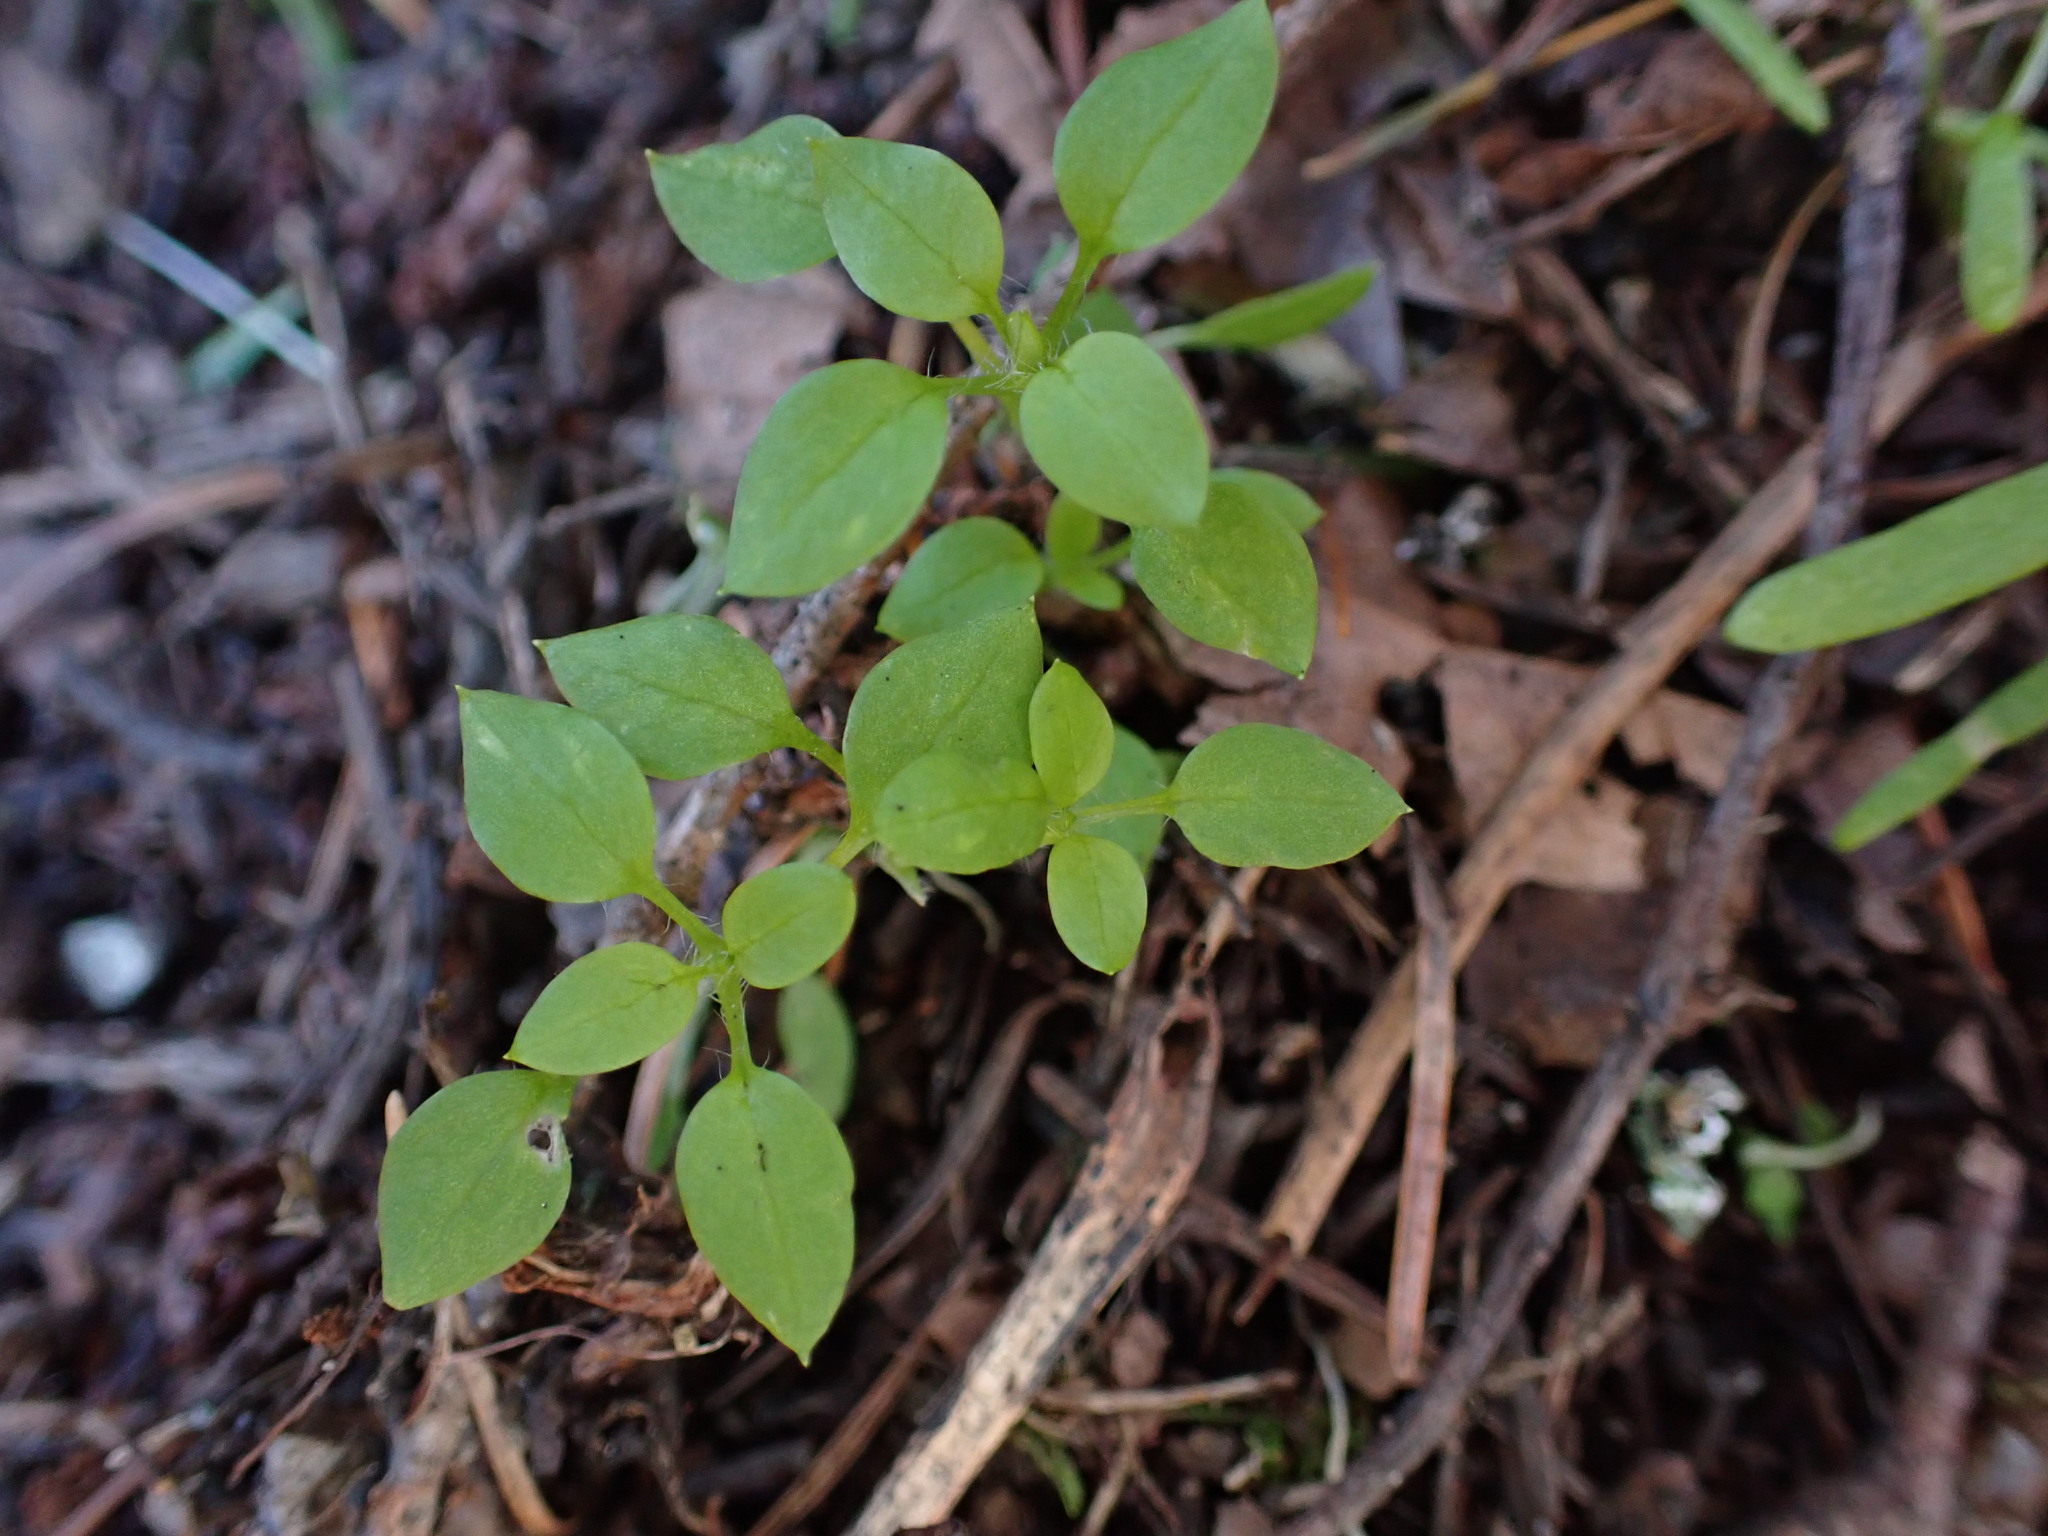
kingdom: Plantae
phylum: Tracheophyta
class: Magnoliopsida
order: Caryophyllales
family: Caryophyllaceae
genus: Stellaria
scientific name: Stellaria media
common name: Common chickweed
